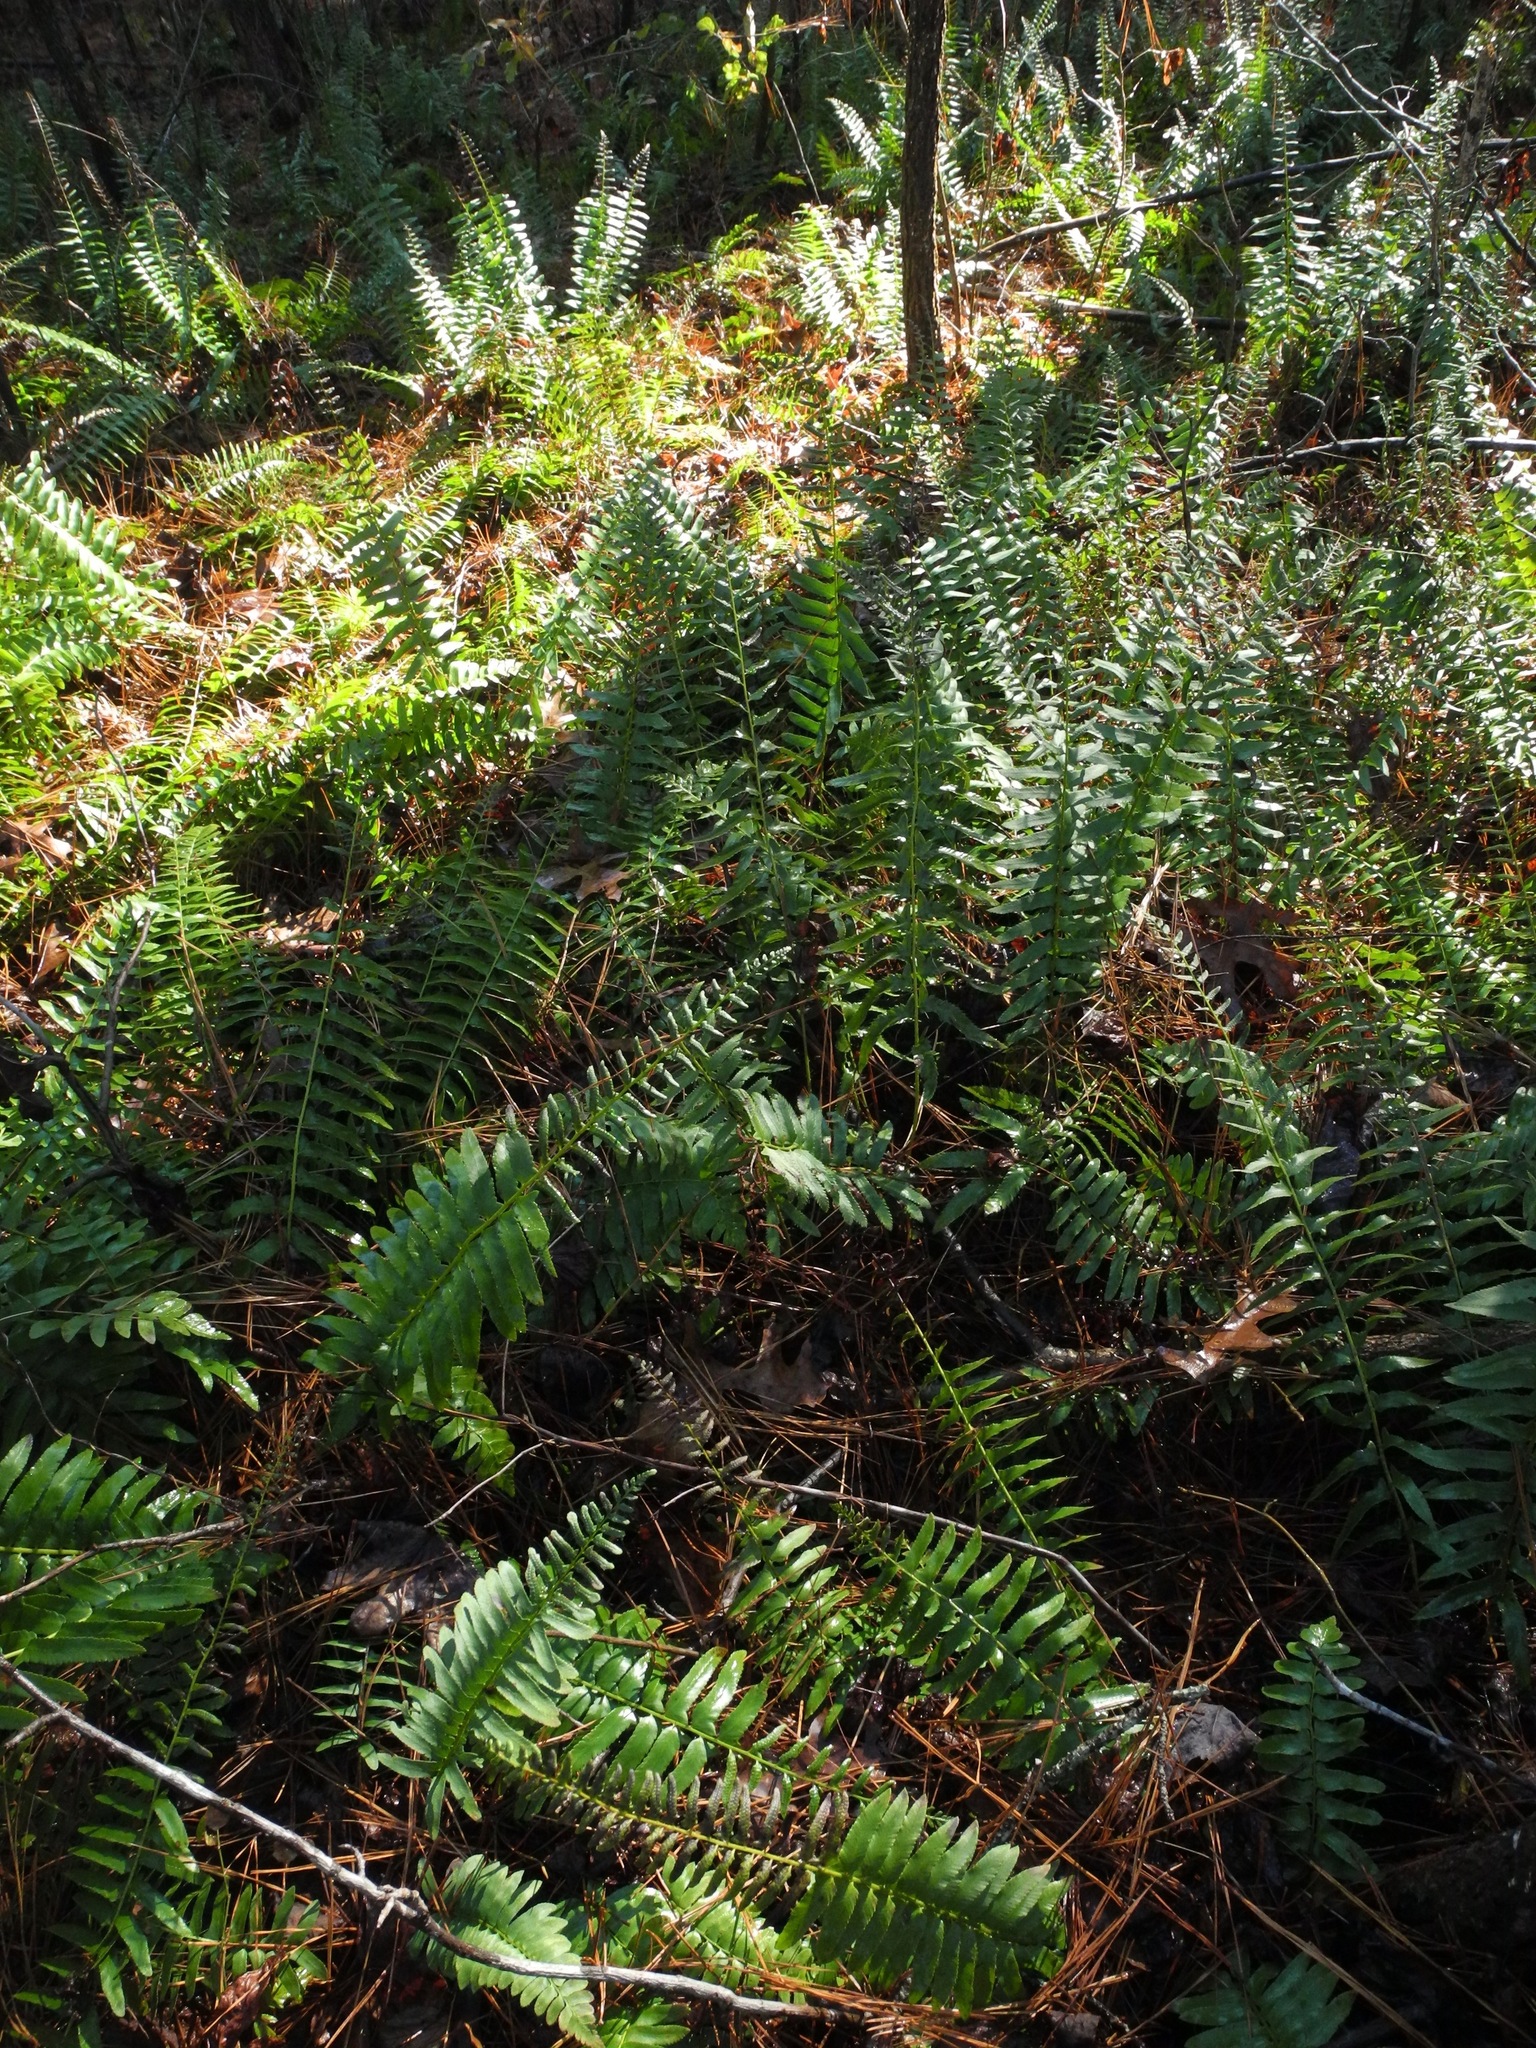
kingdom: Plantae
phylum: Tracheophyta
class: Polypodiopsida
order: Polypodiales
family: Dryopteridaceae
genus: Polystichum
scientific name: Polystichum acrostichoides
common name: Christmas fern
